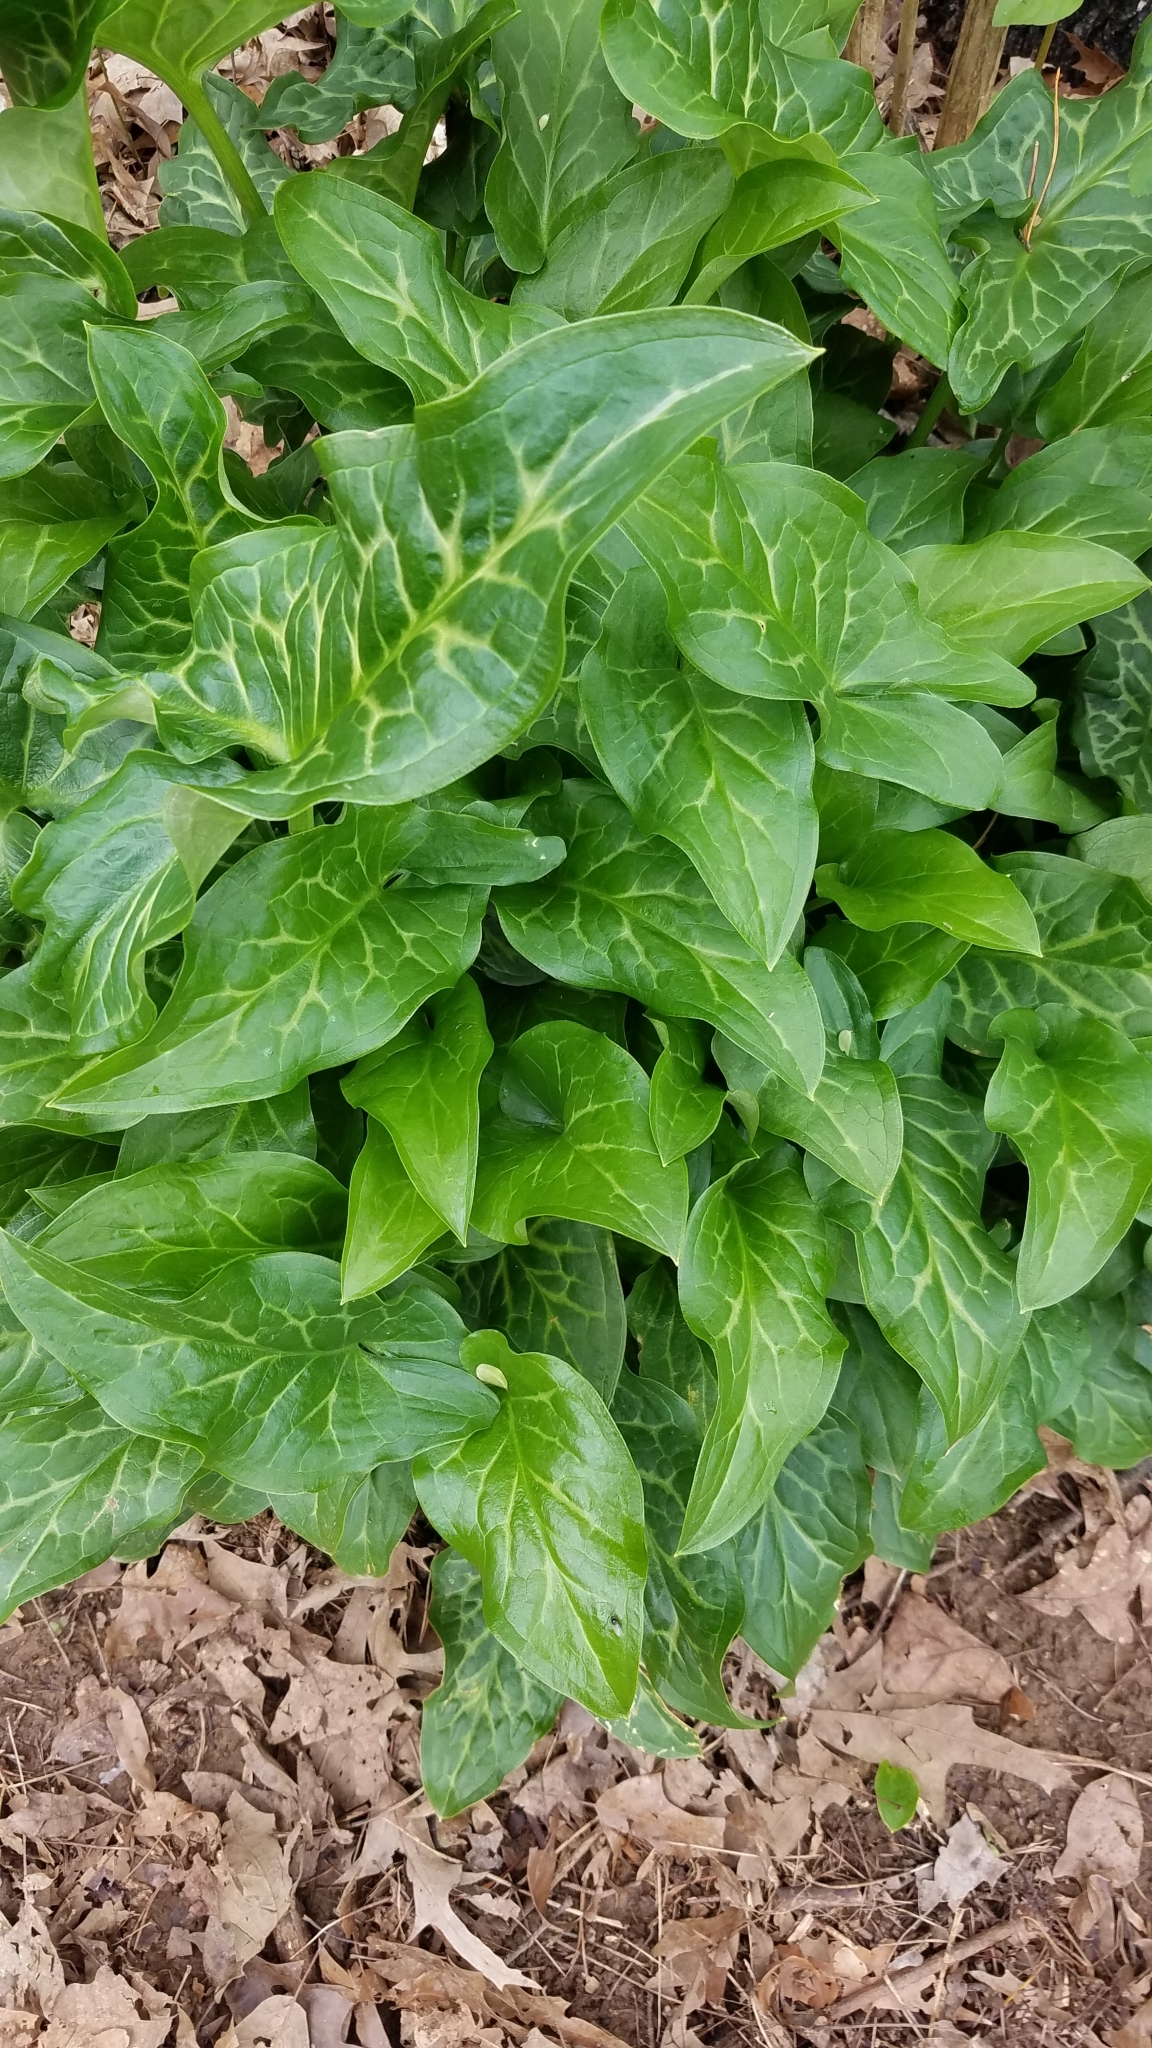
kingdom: Plantae
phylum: Tracheophyta
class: Liliopsida
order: Alismatales
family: Araceae
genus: Arum
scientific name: Arum italicum
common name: Italian lords-and-ladies
